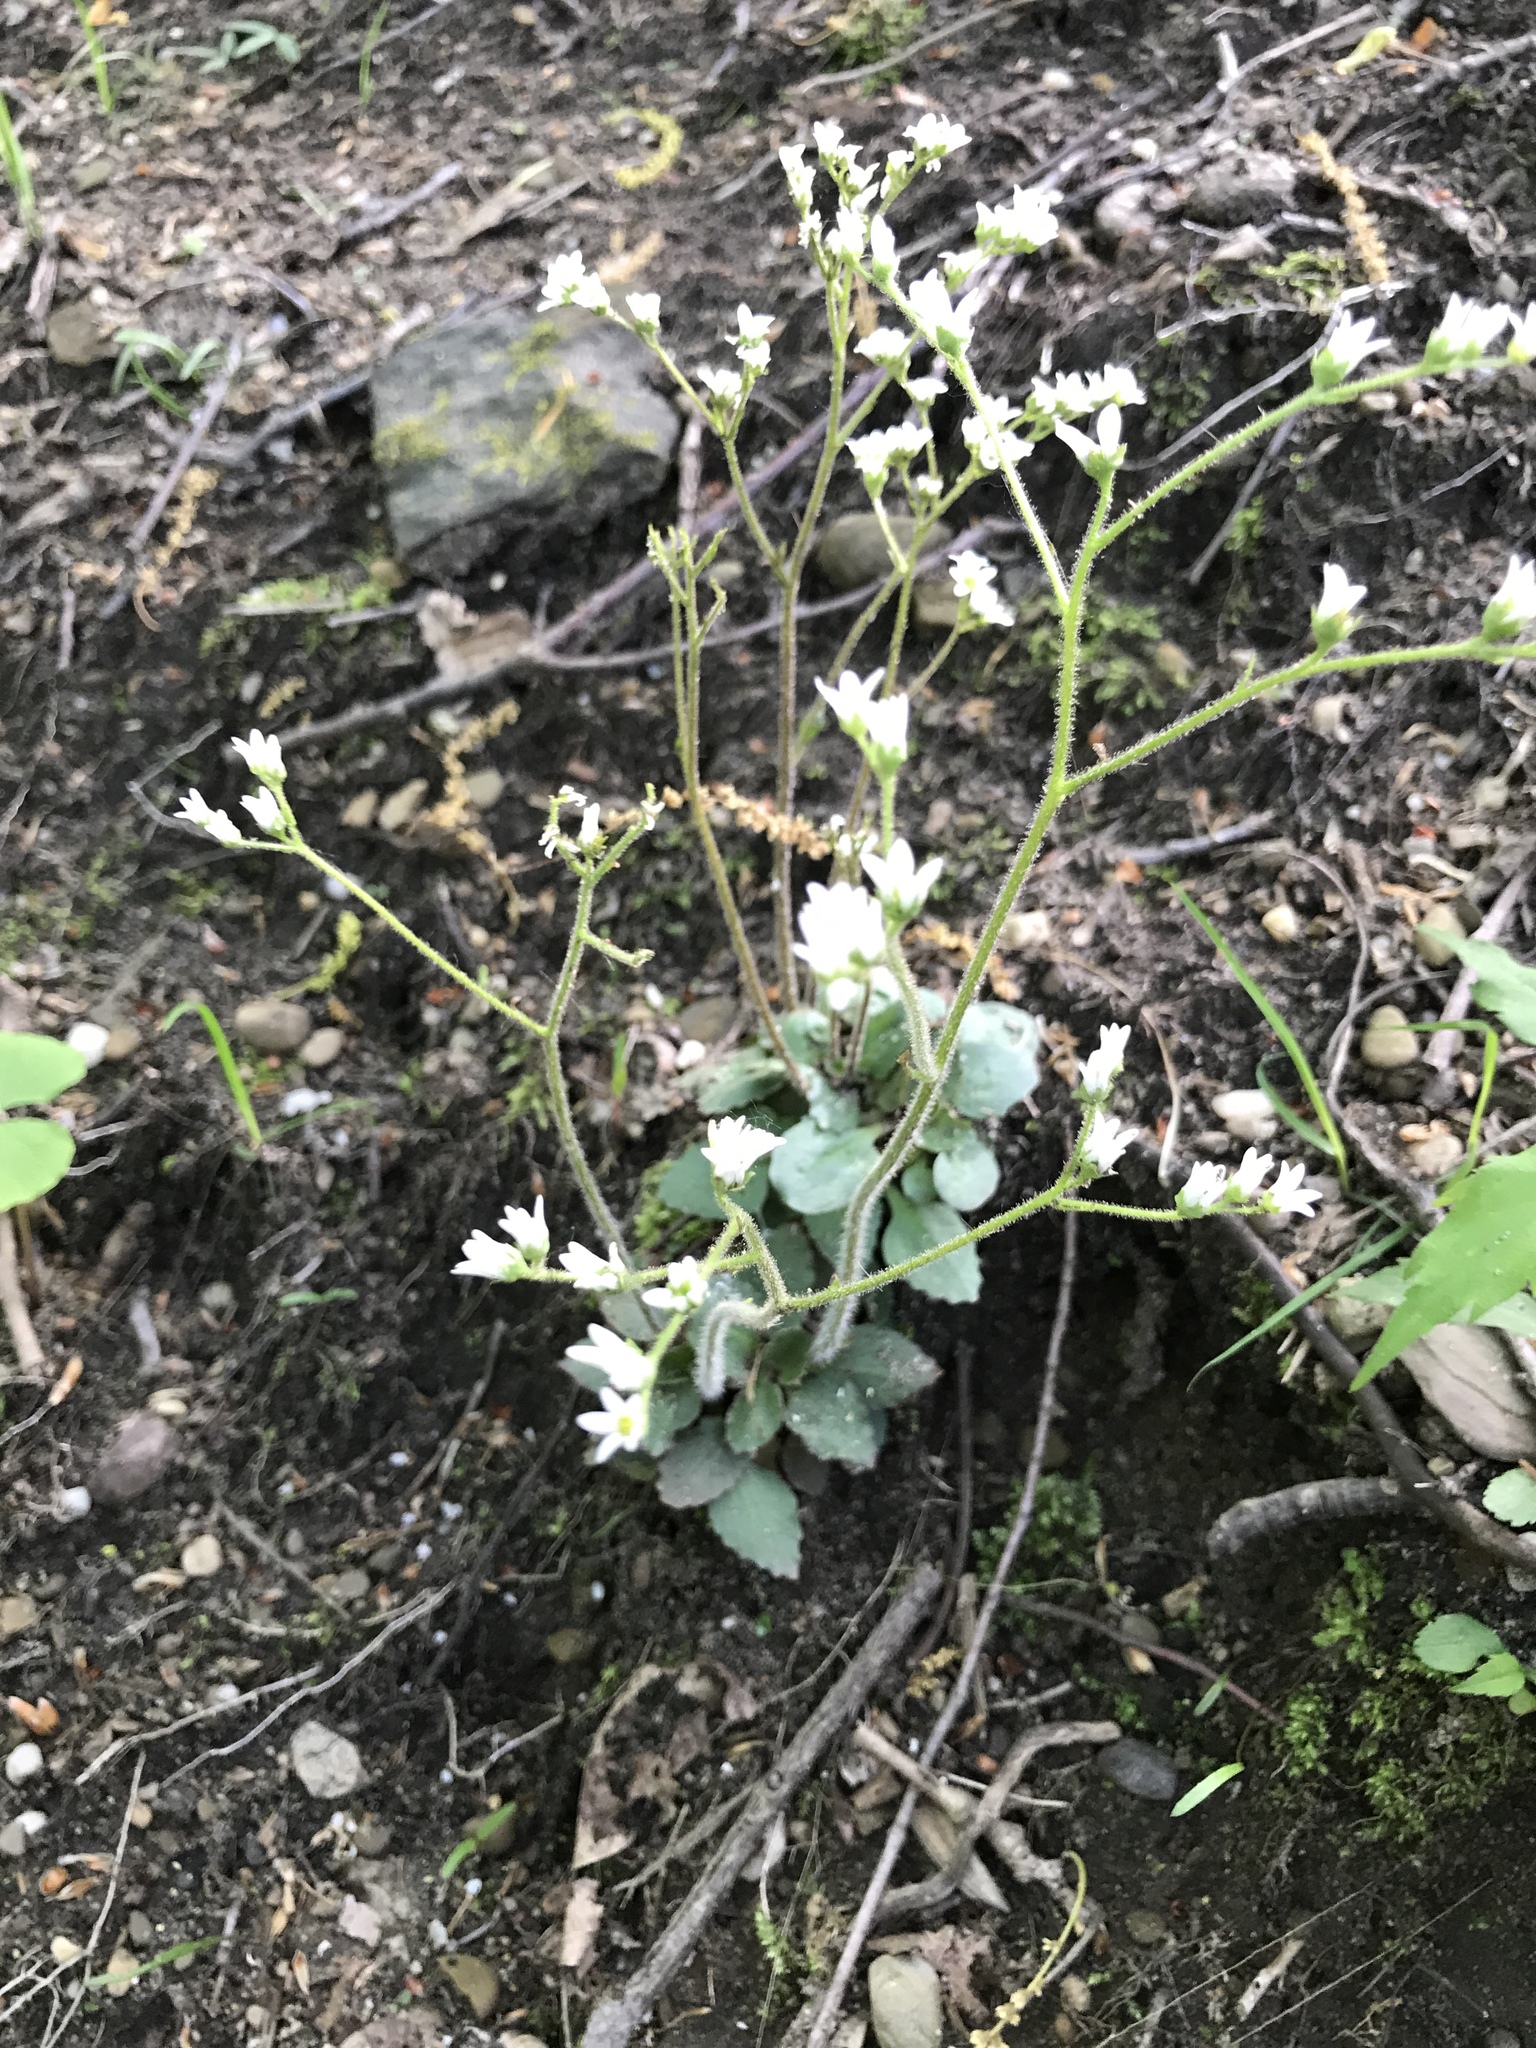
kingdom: Plantae
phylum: Tracheophyta
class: Magnoliopsida
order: Saxifragales
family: Saxifragaceae
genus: Micranthes
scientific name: Micranthes virginiensis
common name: Early saxifrage
